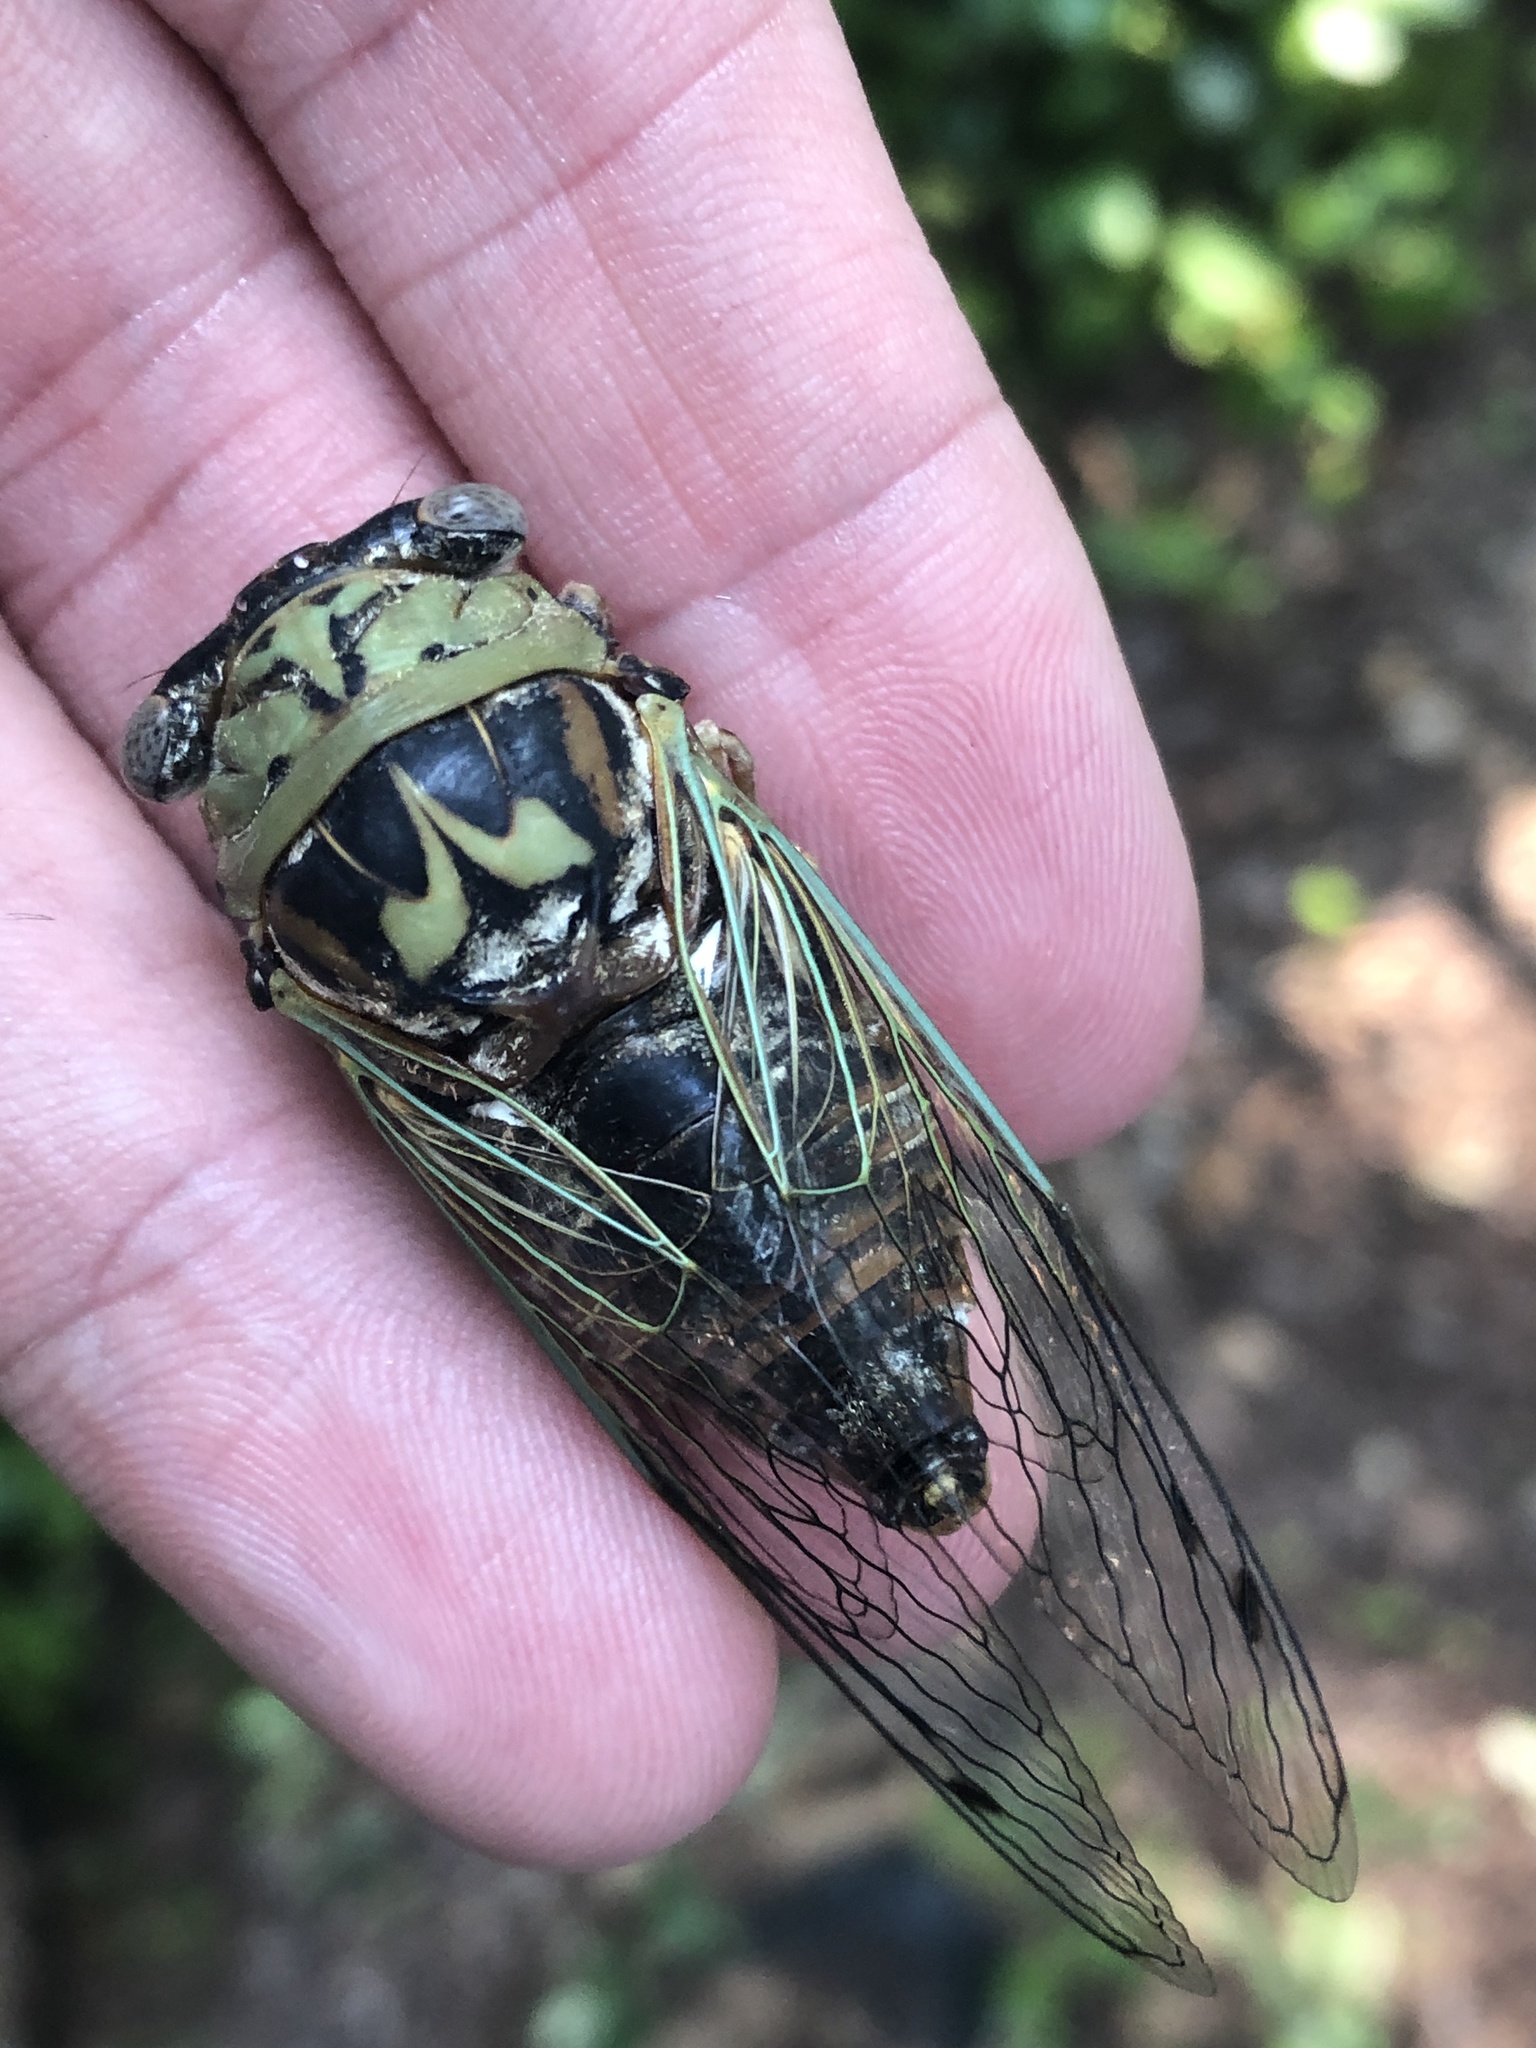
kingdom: Animalia
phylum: Arthropoda
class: Insecta
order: Hemiptera
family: Cicadidae
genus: Megatibicen
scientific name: Megatibicen resh
